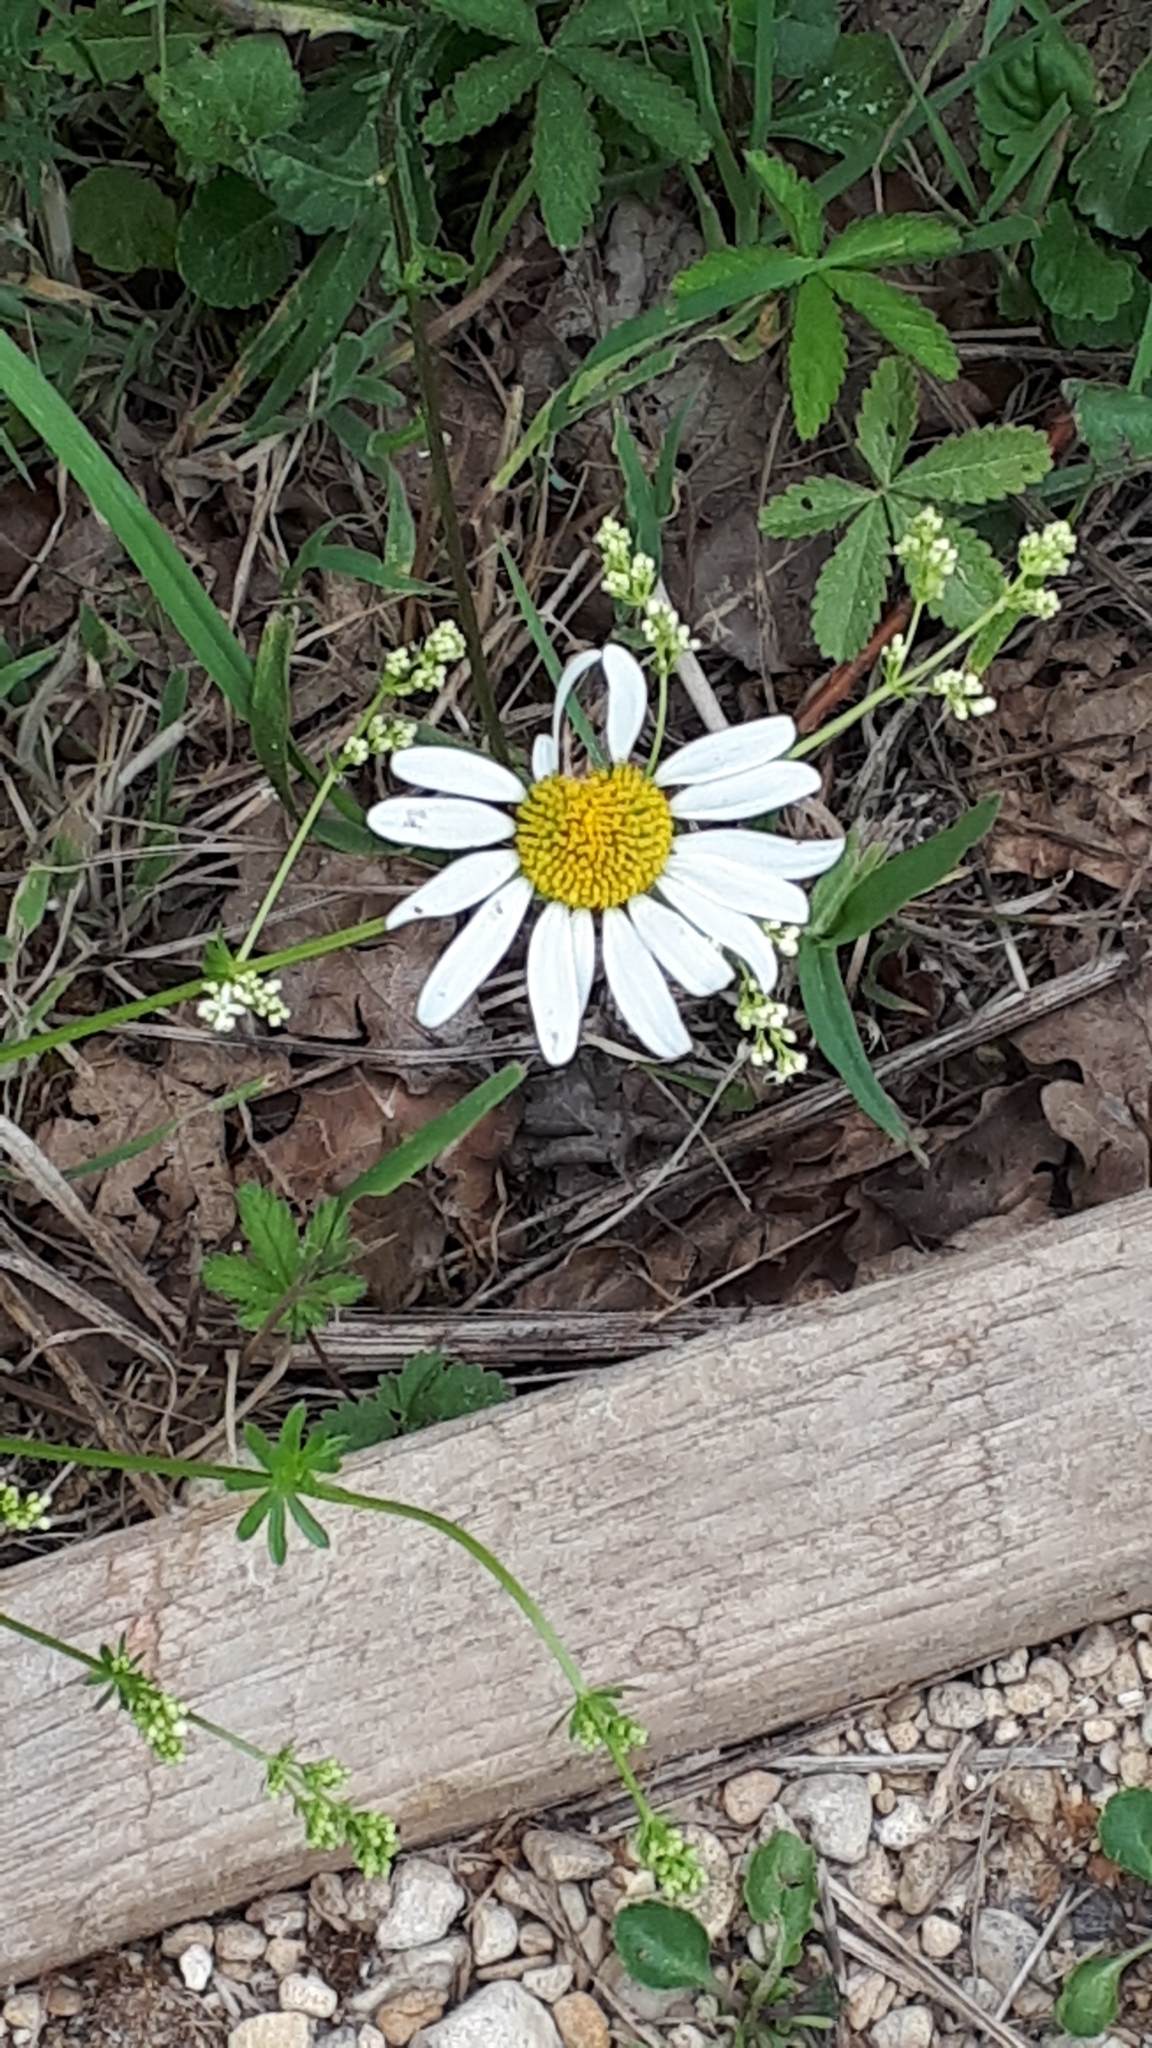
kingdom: Plantae
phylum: Tracheophyta
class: Magnoliopsida
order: Asterales
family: Asteraceae
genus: Leucanthemum
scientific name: Leucanthemum vulgare
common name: Oxeye daisy
